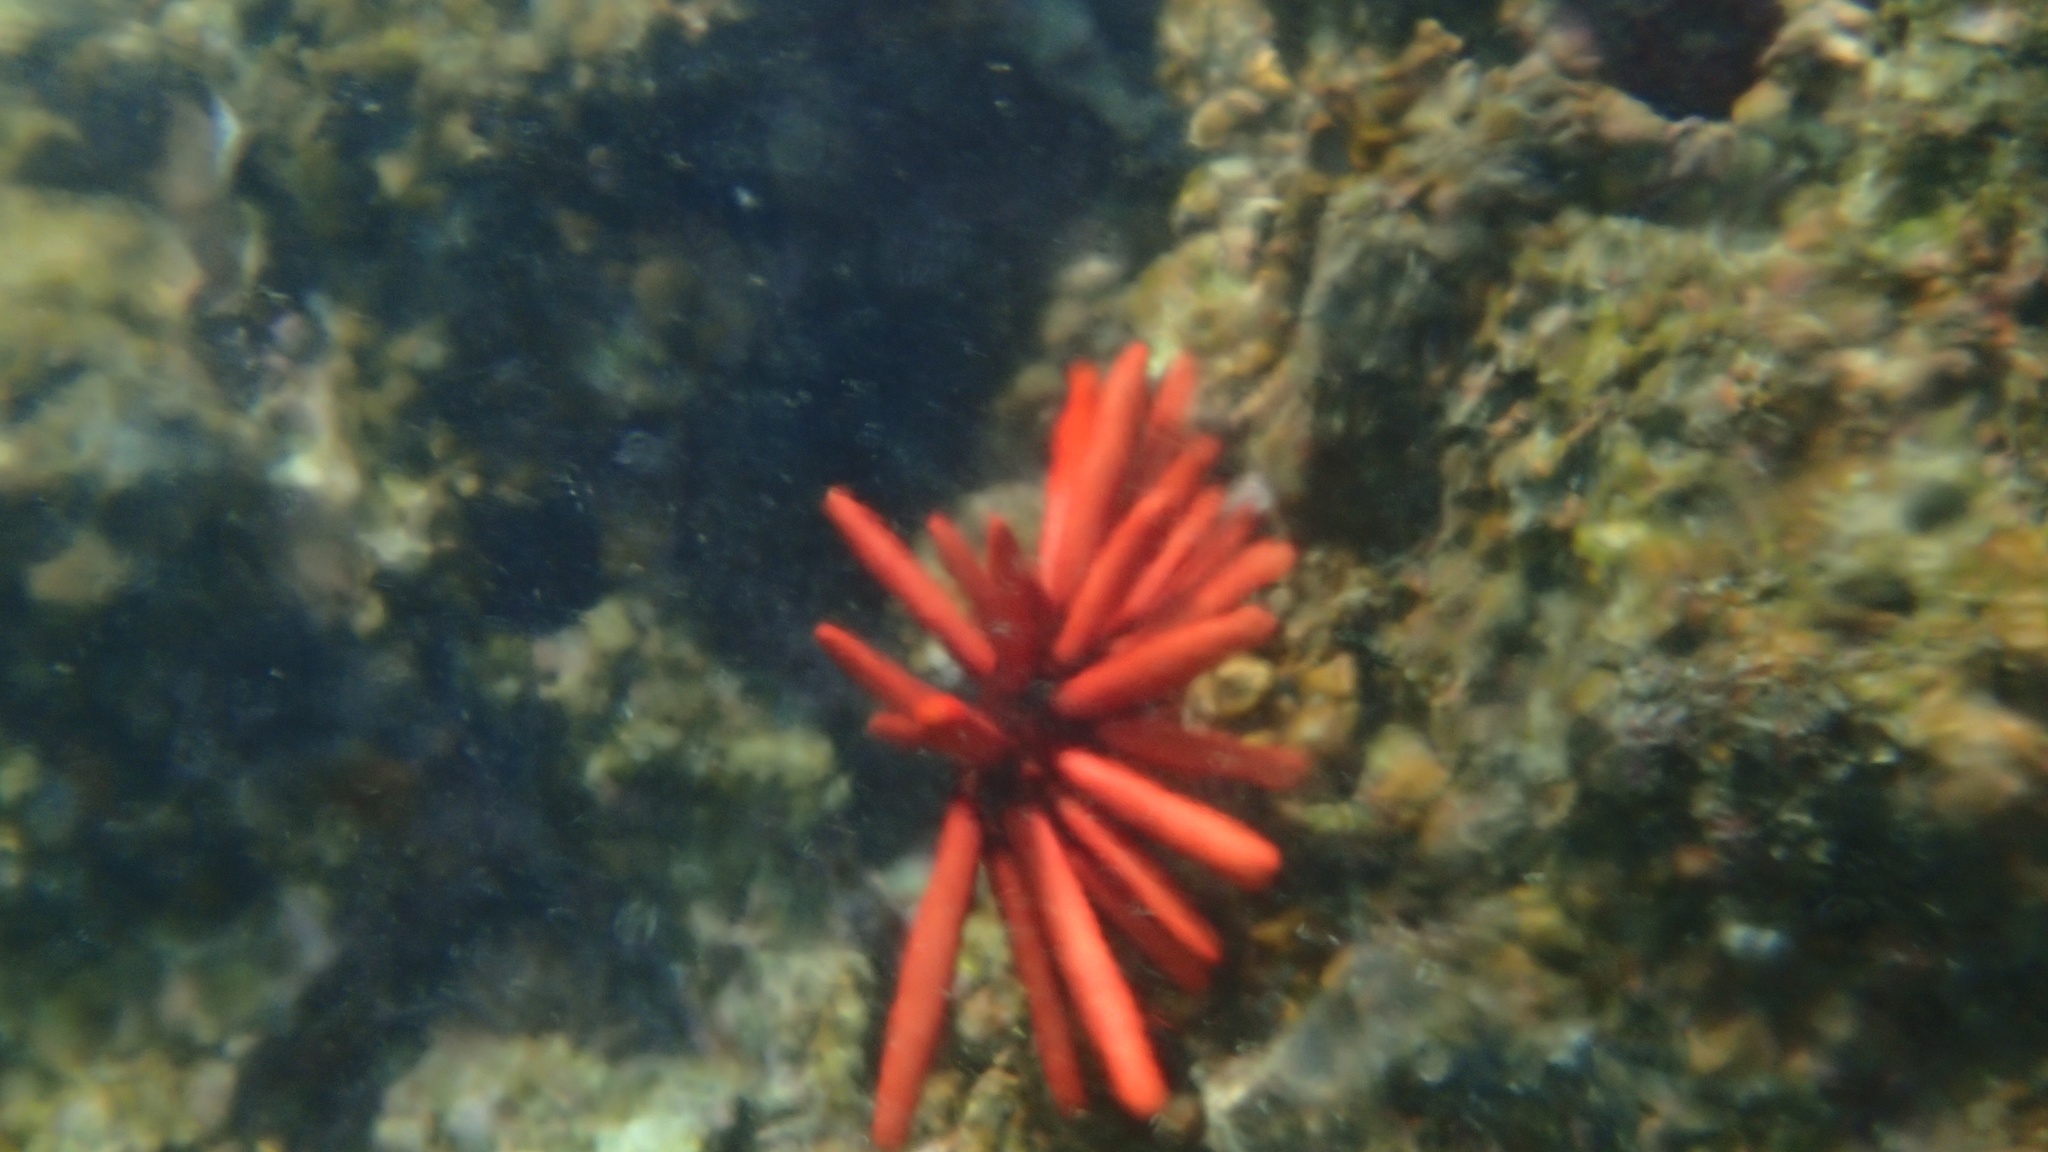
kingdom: Animalia
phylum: Echinodermata
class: Echinoidea
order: Camarodonta
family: Echinometridae
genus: Heterocentrotus
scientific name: Heterocentrotus mamillatus
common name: Slate pencil urchin
